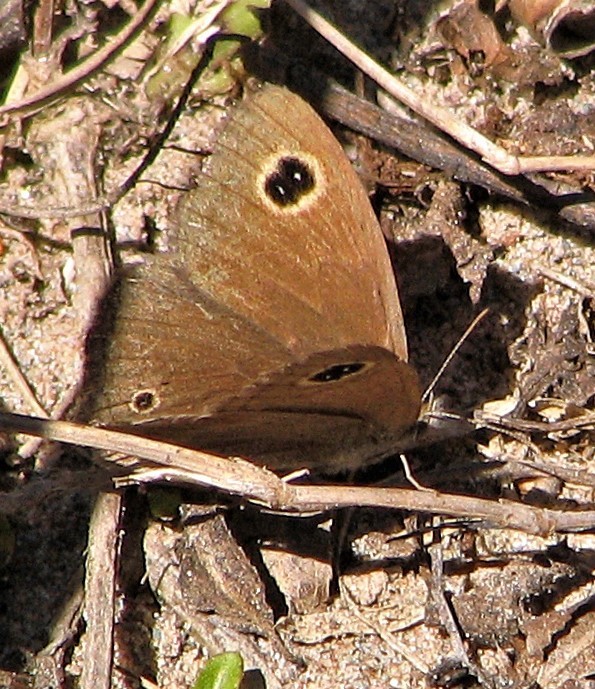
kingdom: Animalia
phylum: Arthropoda
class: Insecta
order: Lepidoptera
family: Nymphalidae
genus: Maniola
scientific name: Maniola imbrialis
